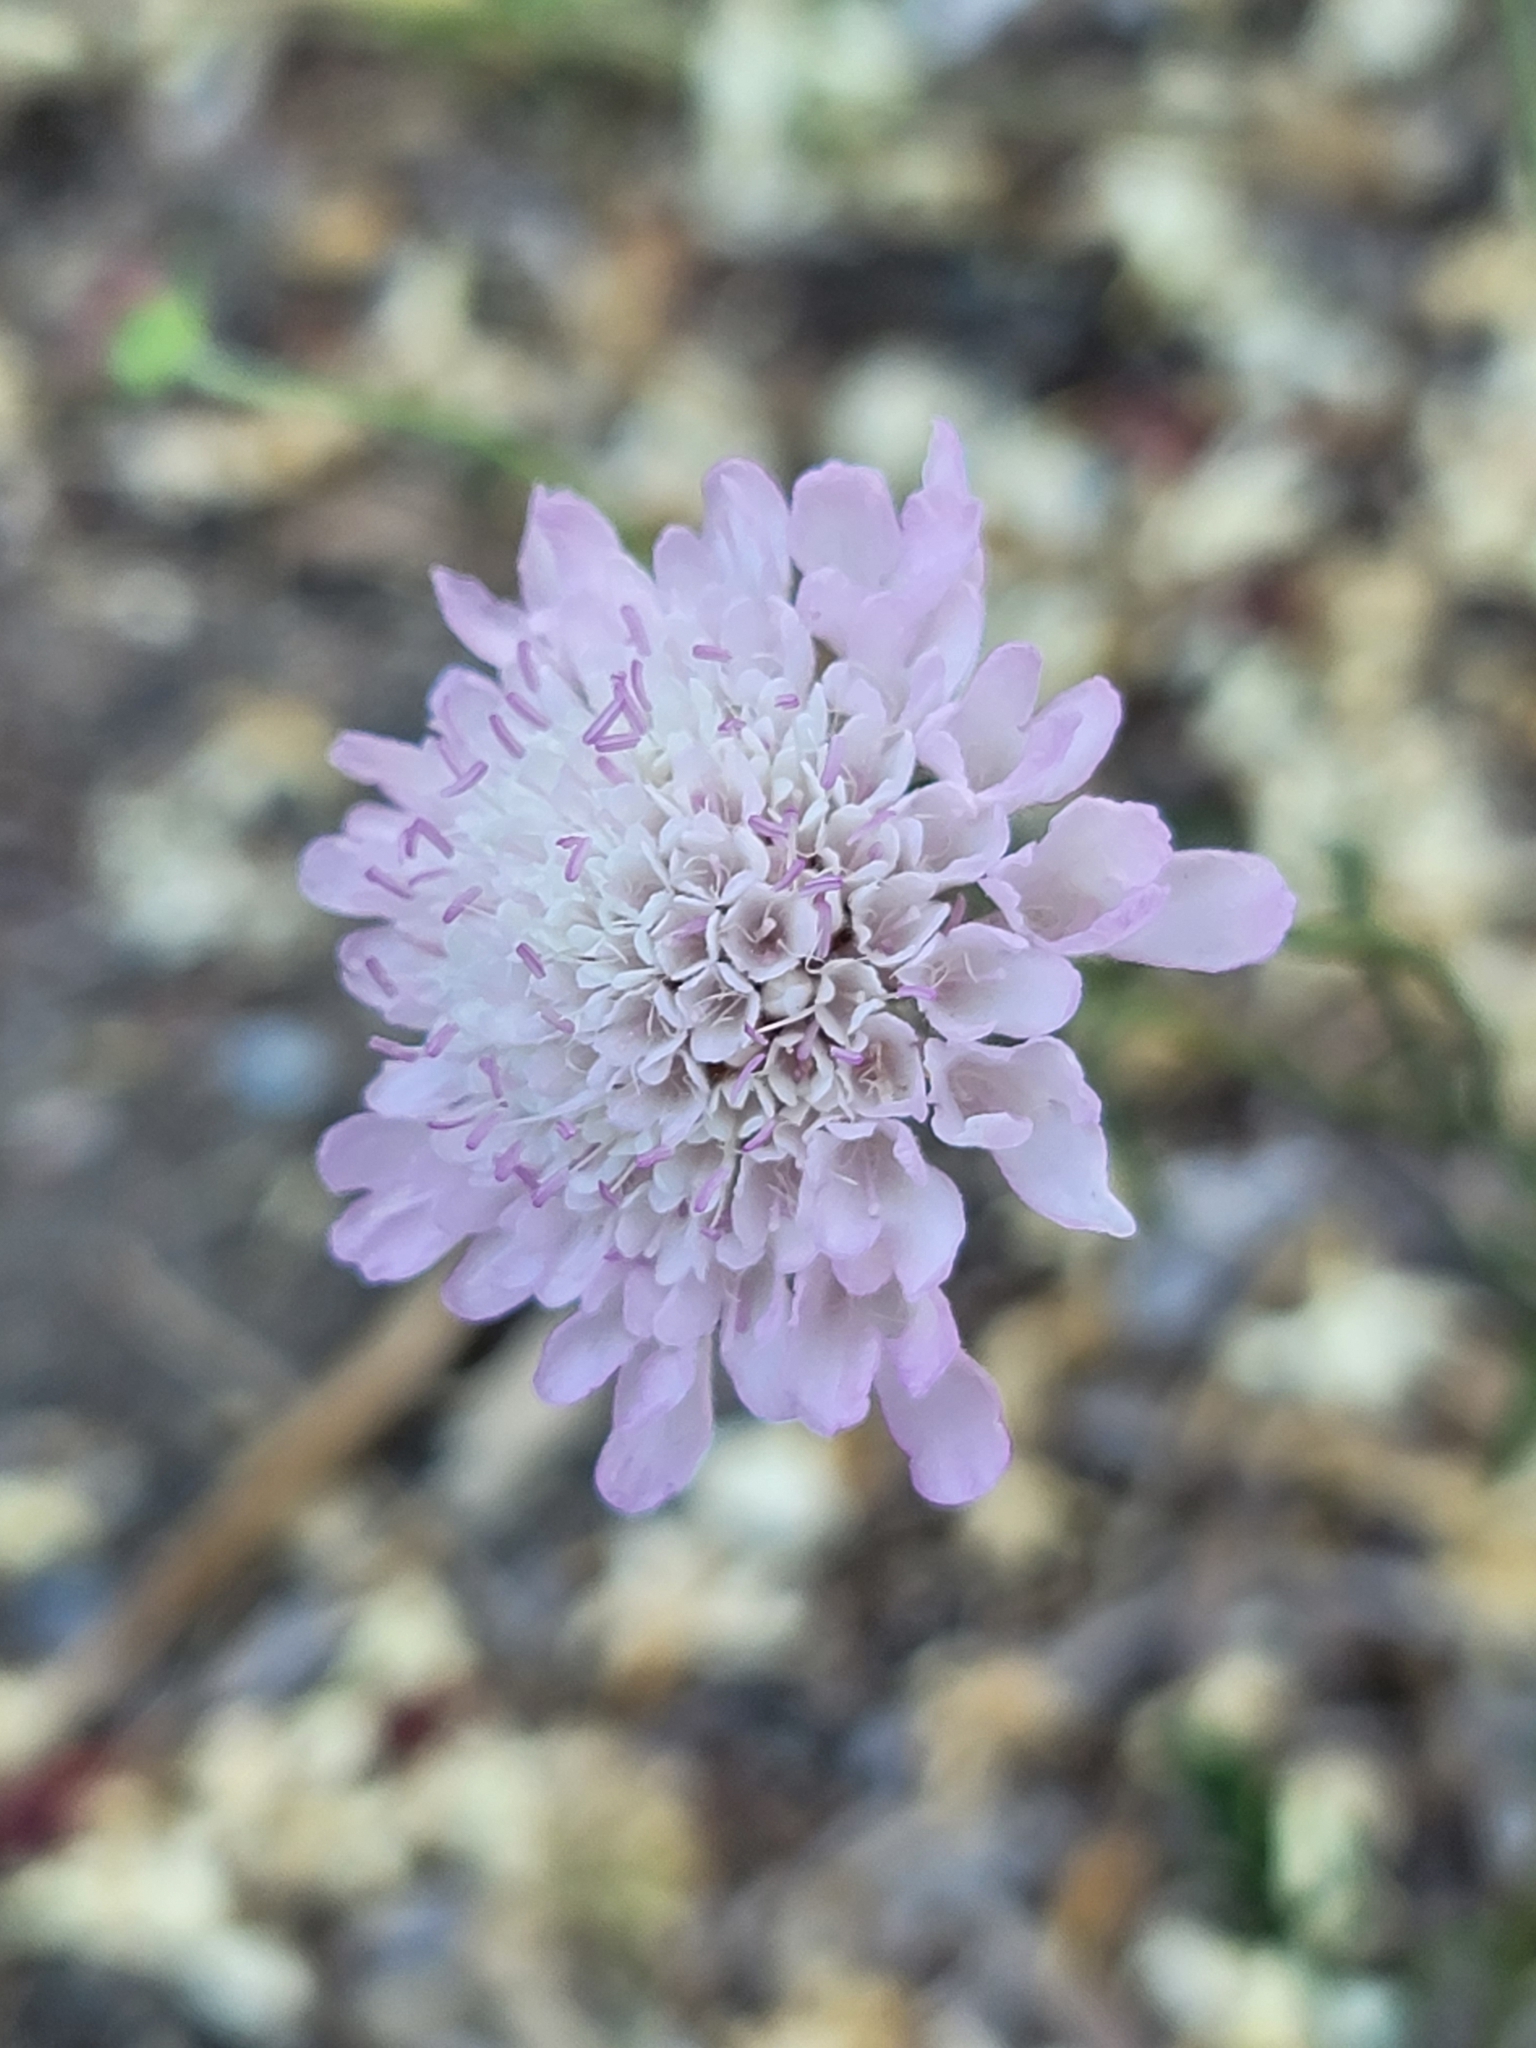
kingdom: Plantae
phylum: Tracheophyta
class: Magnoliopsida
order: Dipsacales
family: Caprifoliaceae
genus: Sixalix
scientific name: Sixalix atropurpurea
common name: Sweet scabious
